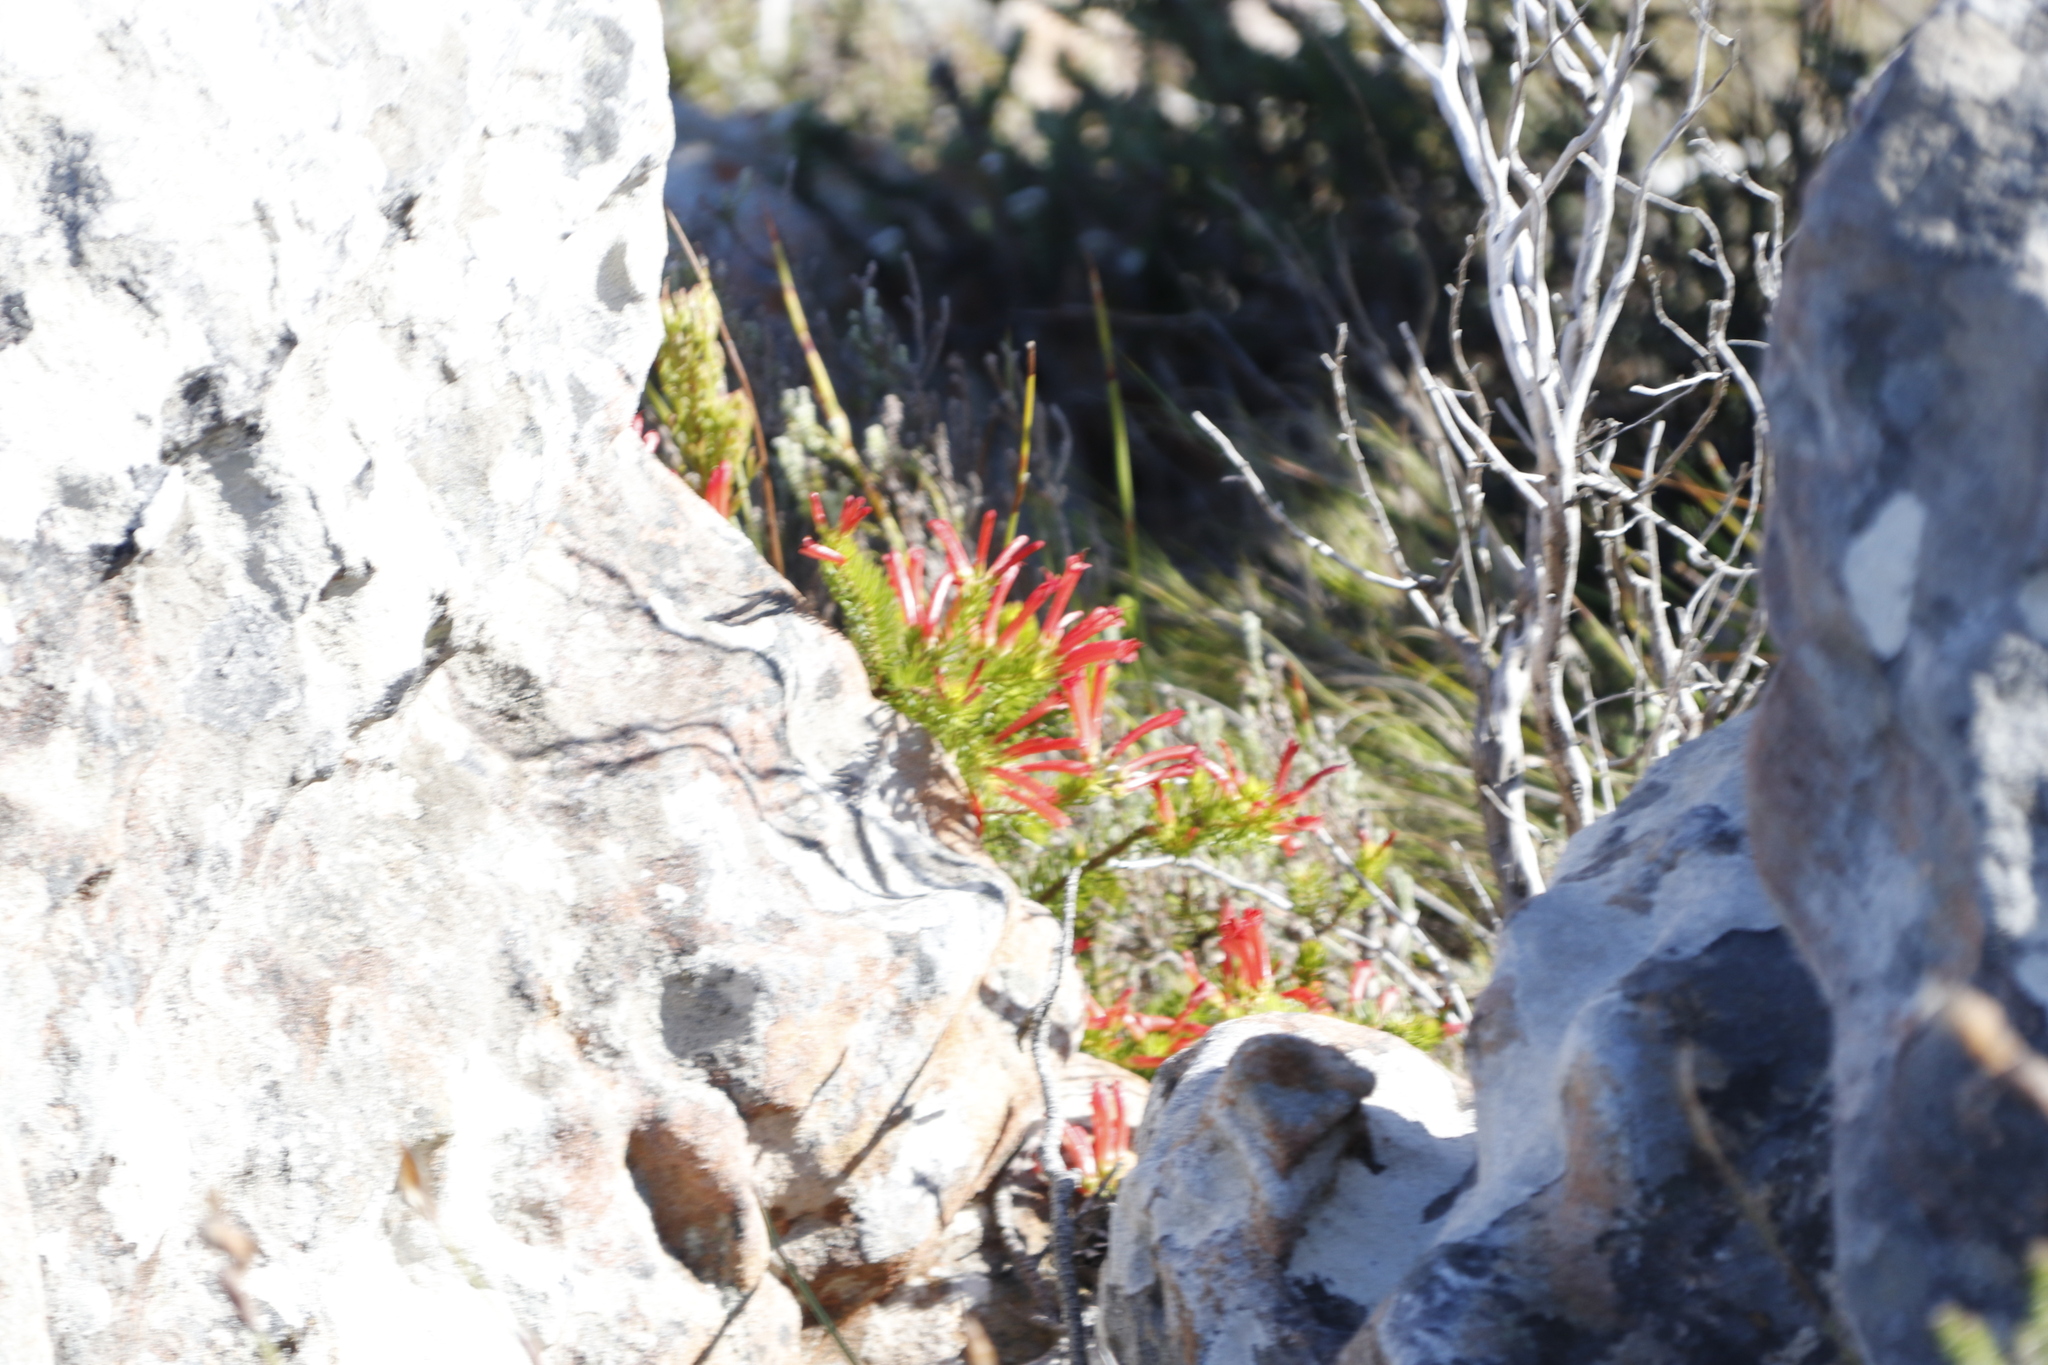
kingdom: Plantae
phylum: Tracheophyta
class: Magnoliopsida
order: Ericales
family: Ericaceae
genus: Erica
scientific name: Erica nevillei
